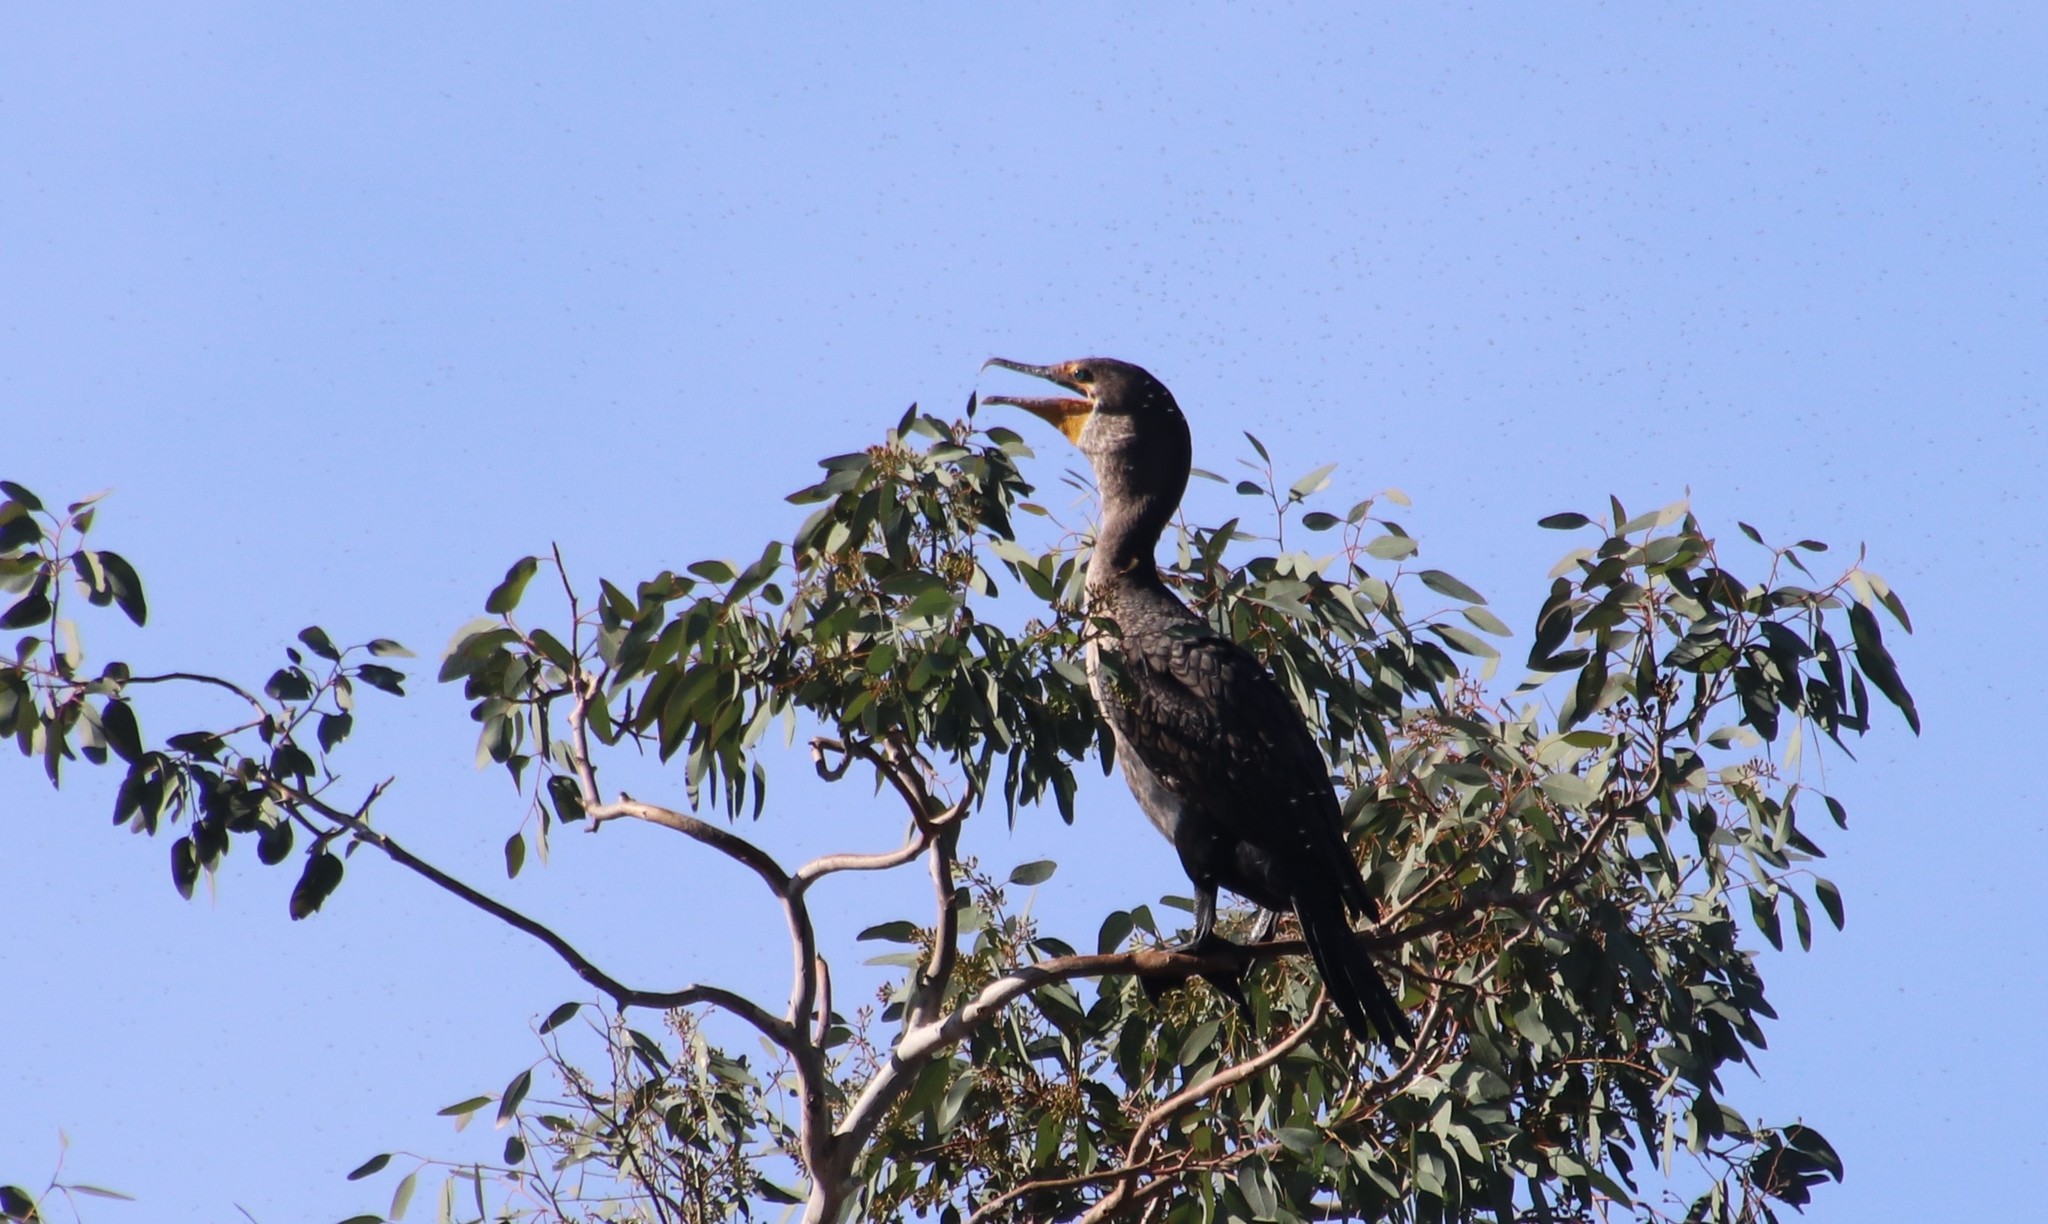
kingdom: Animalia
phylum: Chordata
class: Aves
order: Suliformes
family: Phalacrocoracidae
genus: Phalacrocorax
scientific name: Phalacrocorax auritus
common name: Double-crested cormorant
